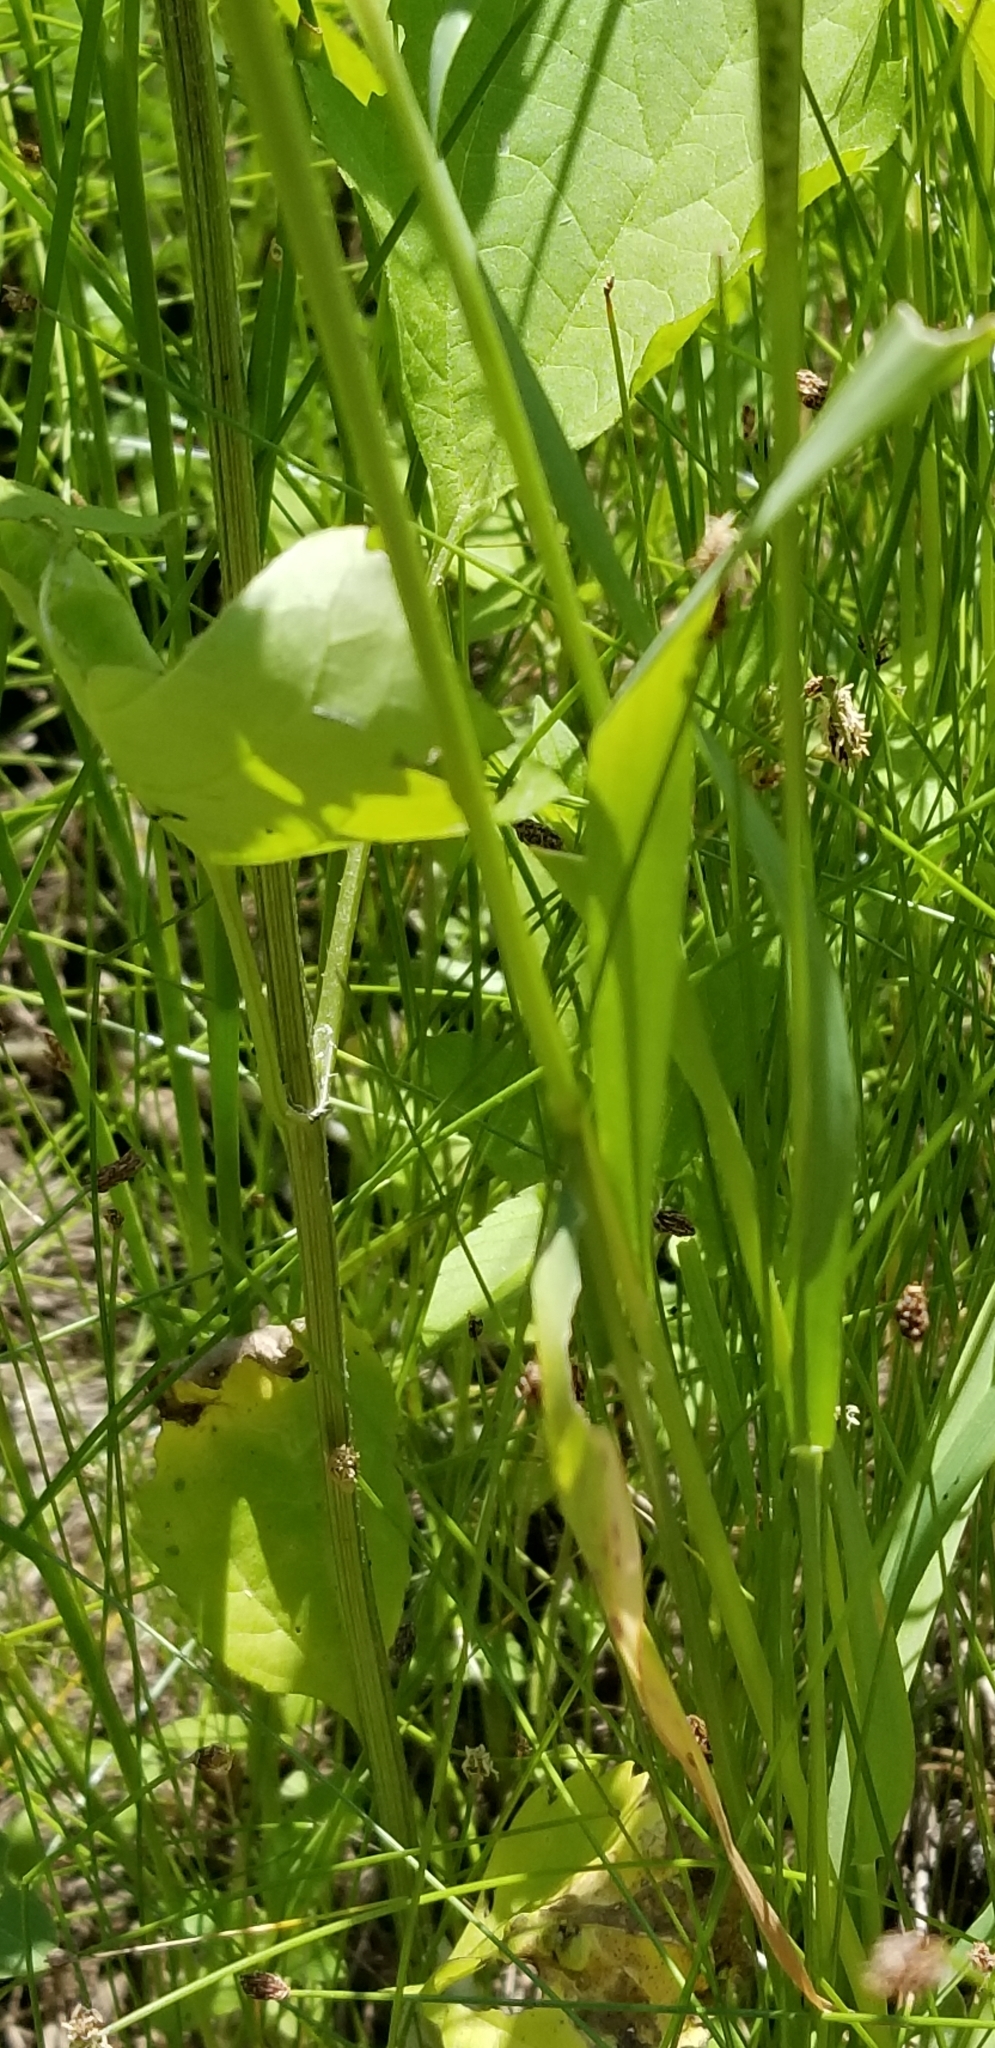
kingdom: Plantae
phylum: Tracheophyta
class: Liliopsida
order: Poales
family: Poaceae
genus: Sphenopholis
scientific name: Sphenopholis obtusata
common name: Prairie grass
